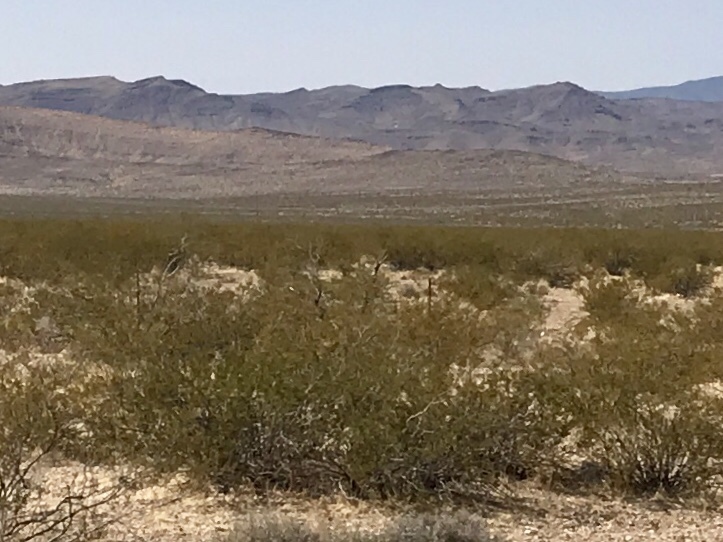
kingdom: Plantae
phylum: Tracheophyta
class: Magnoliopsida
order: Zygophyllales
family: Zygophyllaceae
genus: Larrea
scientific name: Larrea tridentata
